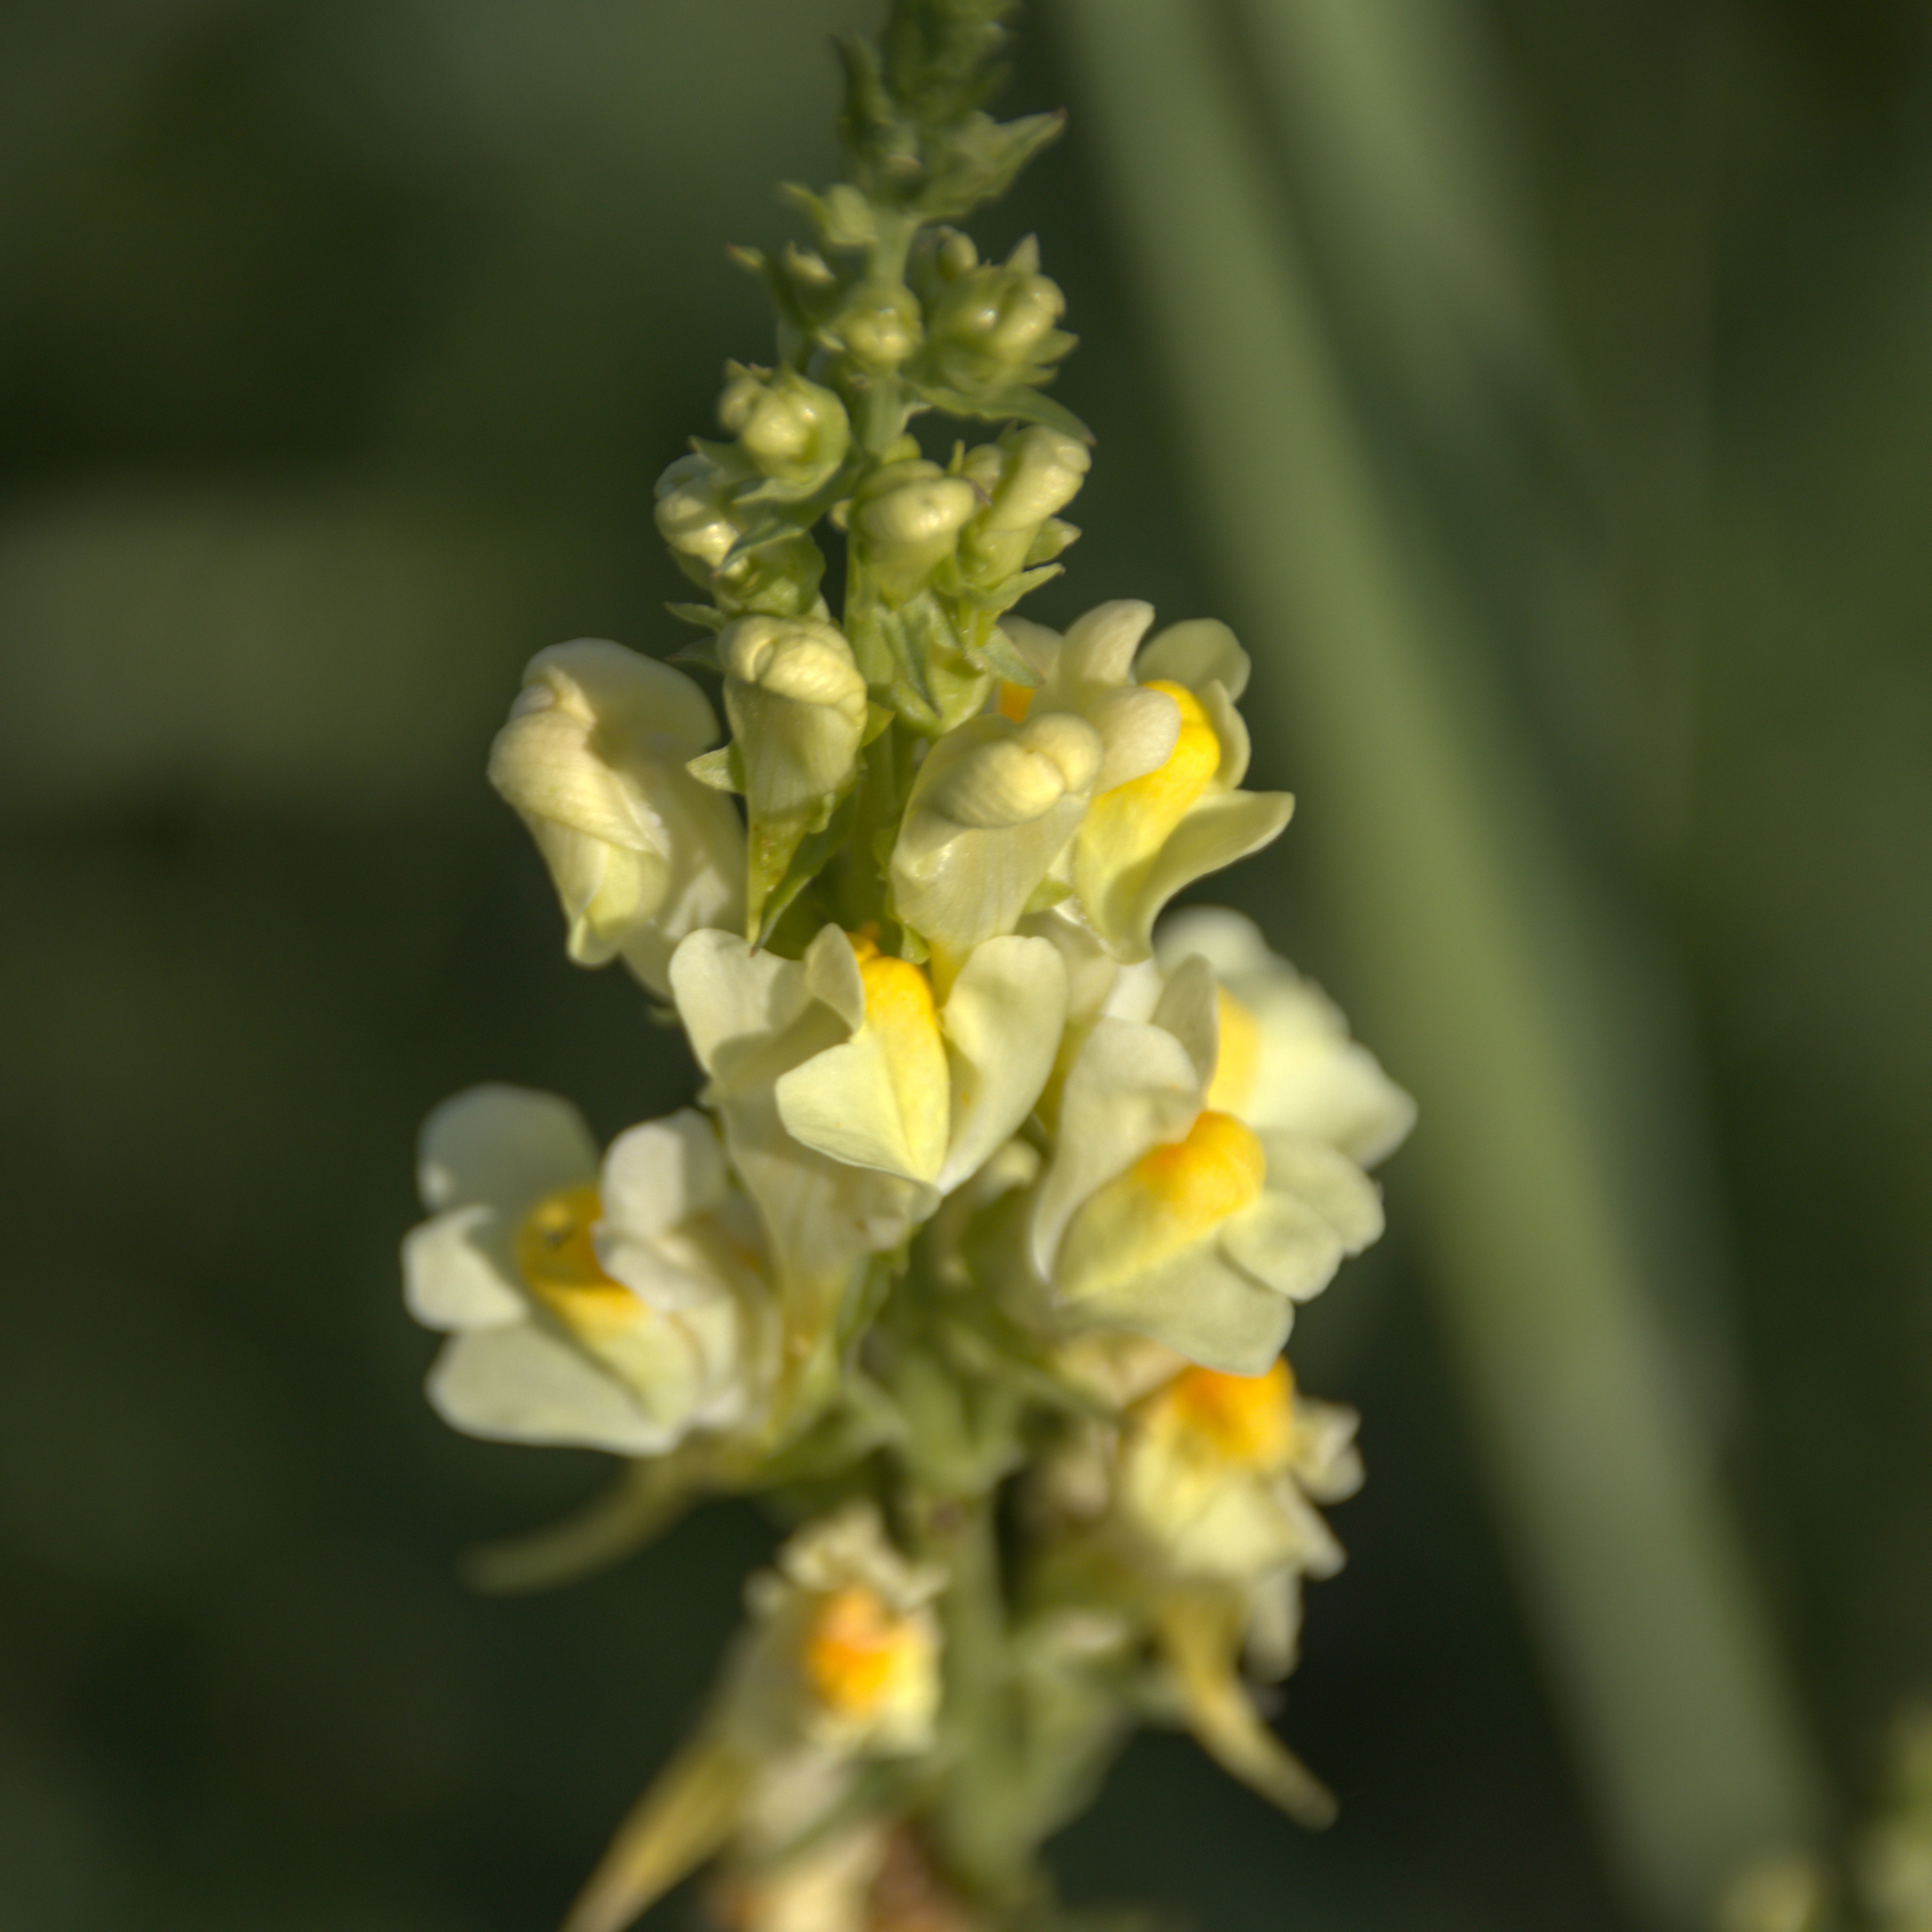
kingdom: Plantae
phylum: Tracheophyta
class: Magnoliopsida
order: Lamiales
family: Plantaginaceae
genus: Linaria
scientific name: Linaria vulgaris
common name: Butter and eggs
